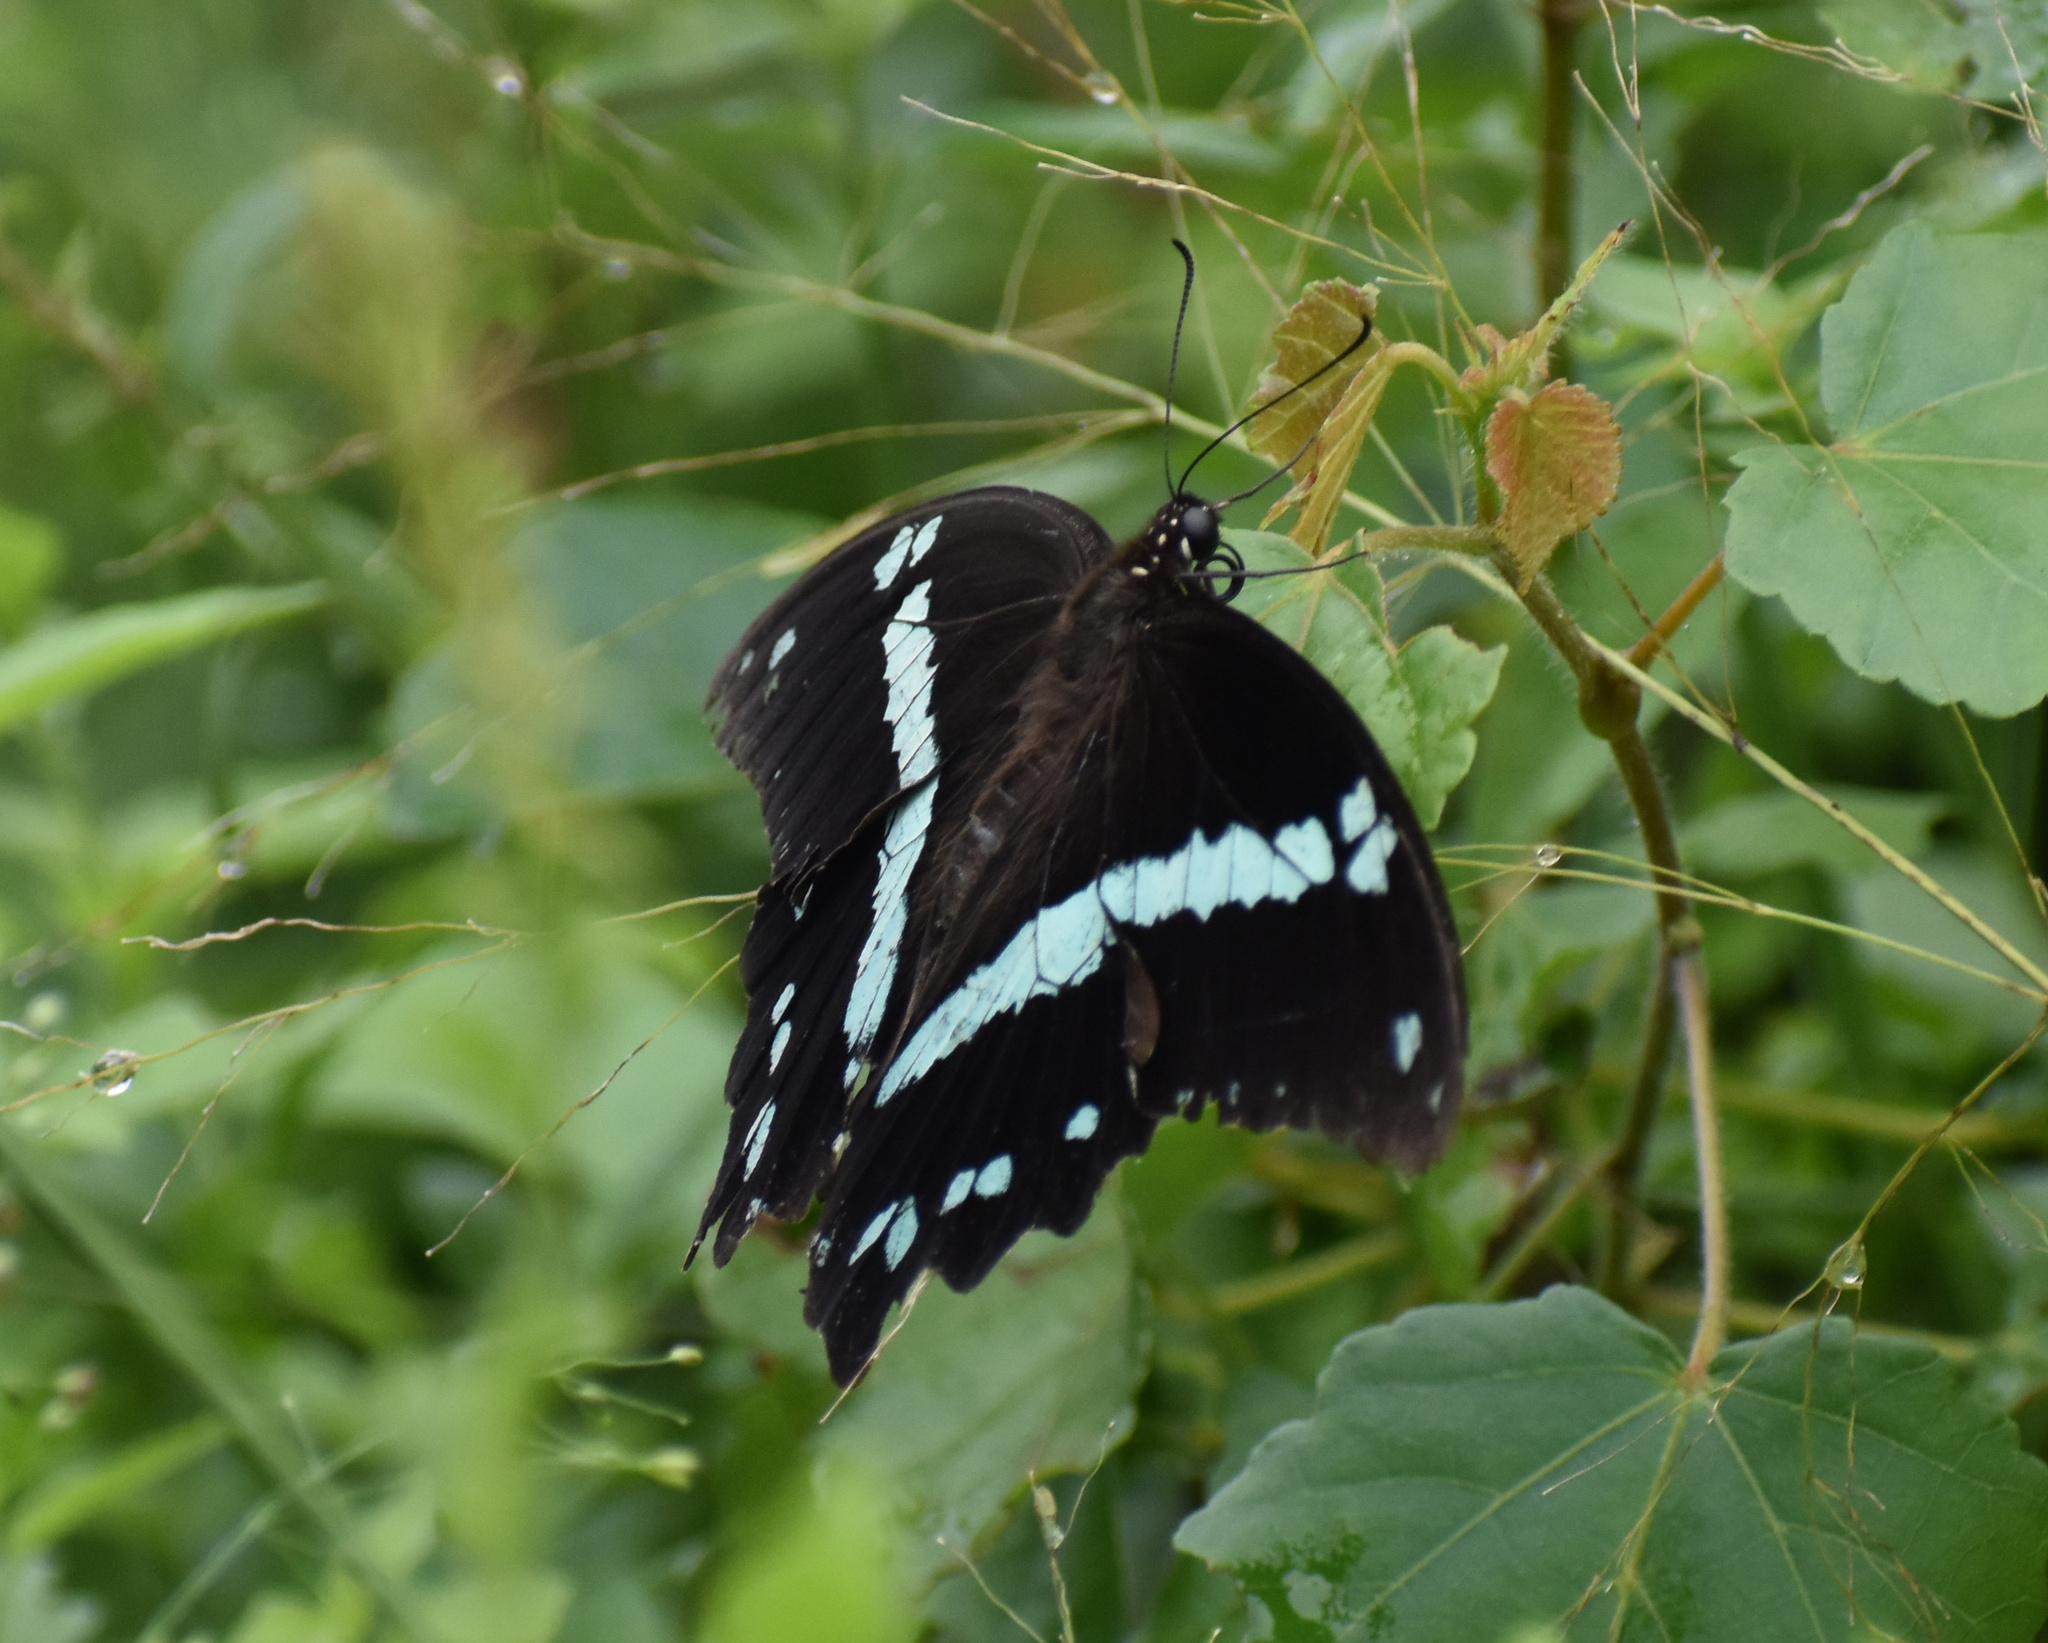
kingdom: Animalia
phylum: Arthropoda
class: Insecta
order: Lepidoptera
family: Papilionidae
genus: Papilio
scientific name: Papilio nireus
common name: Greenbanded swallowtail
